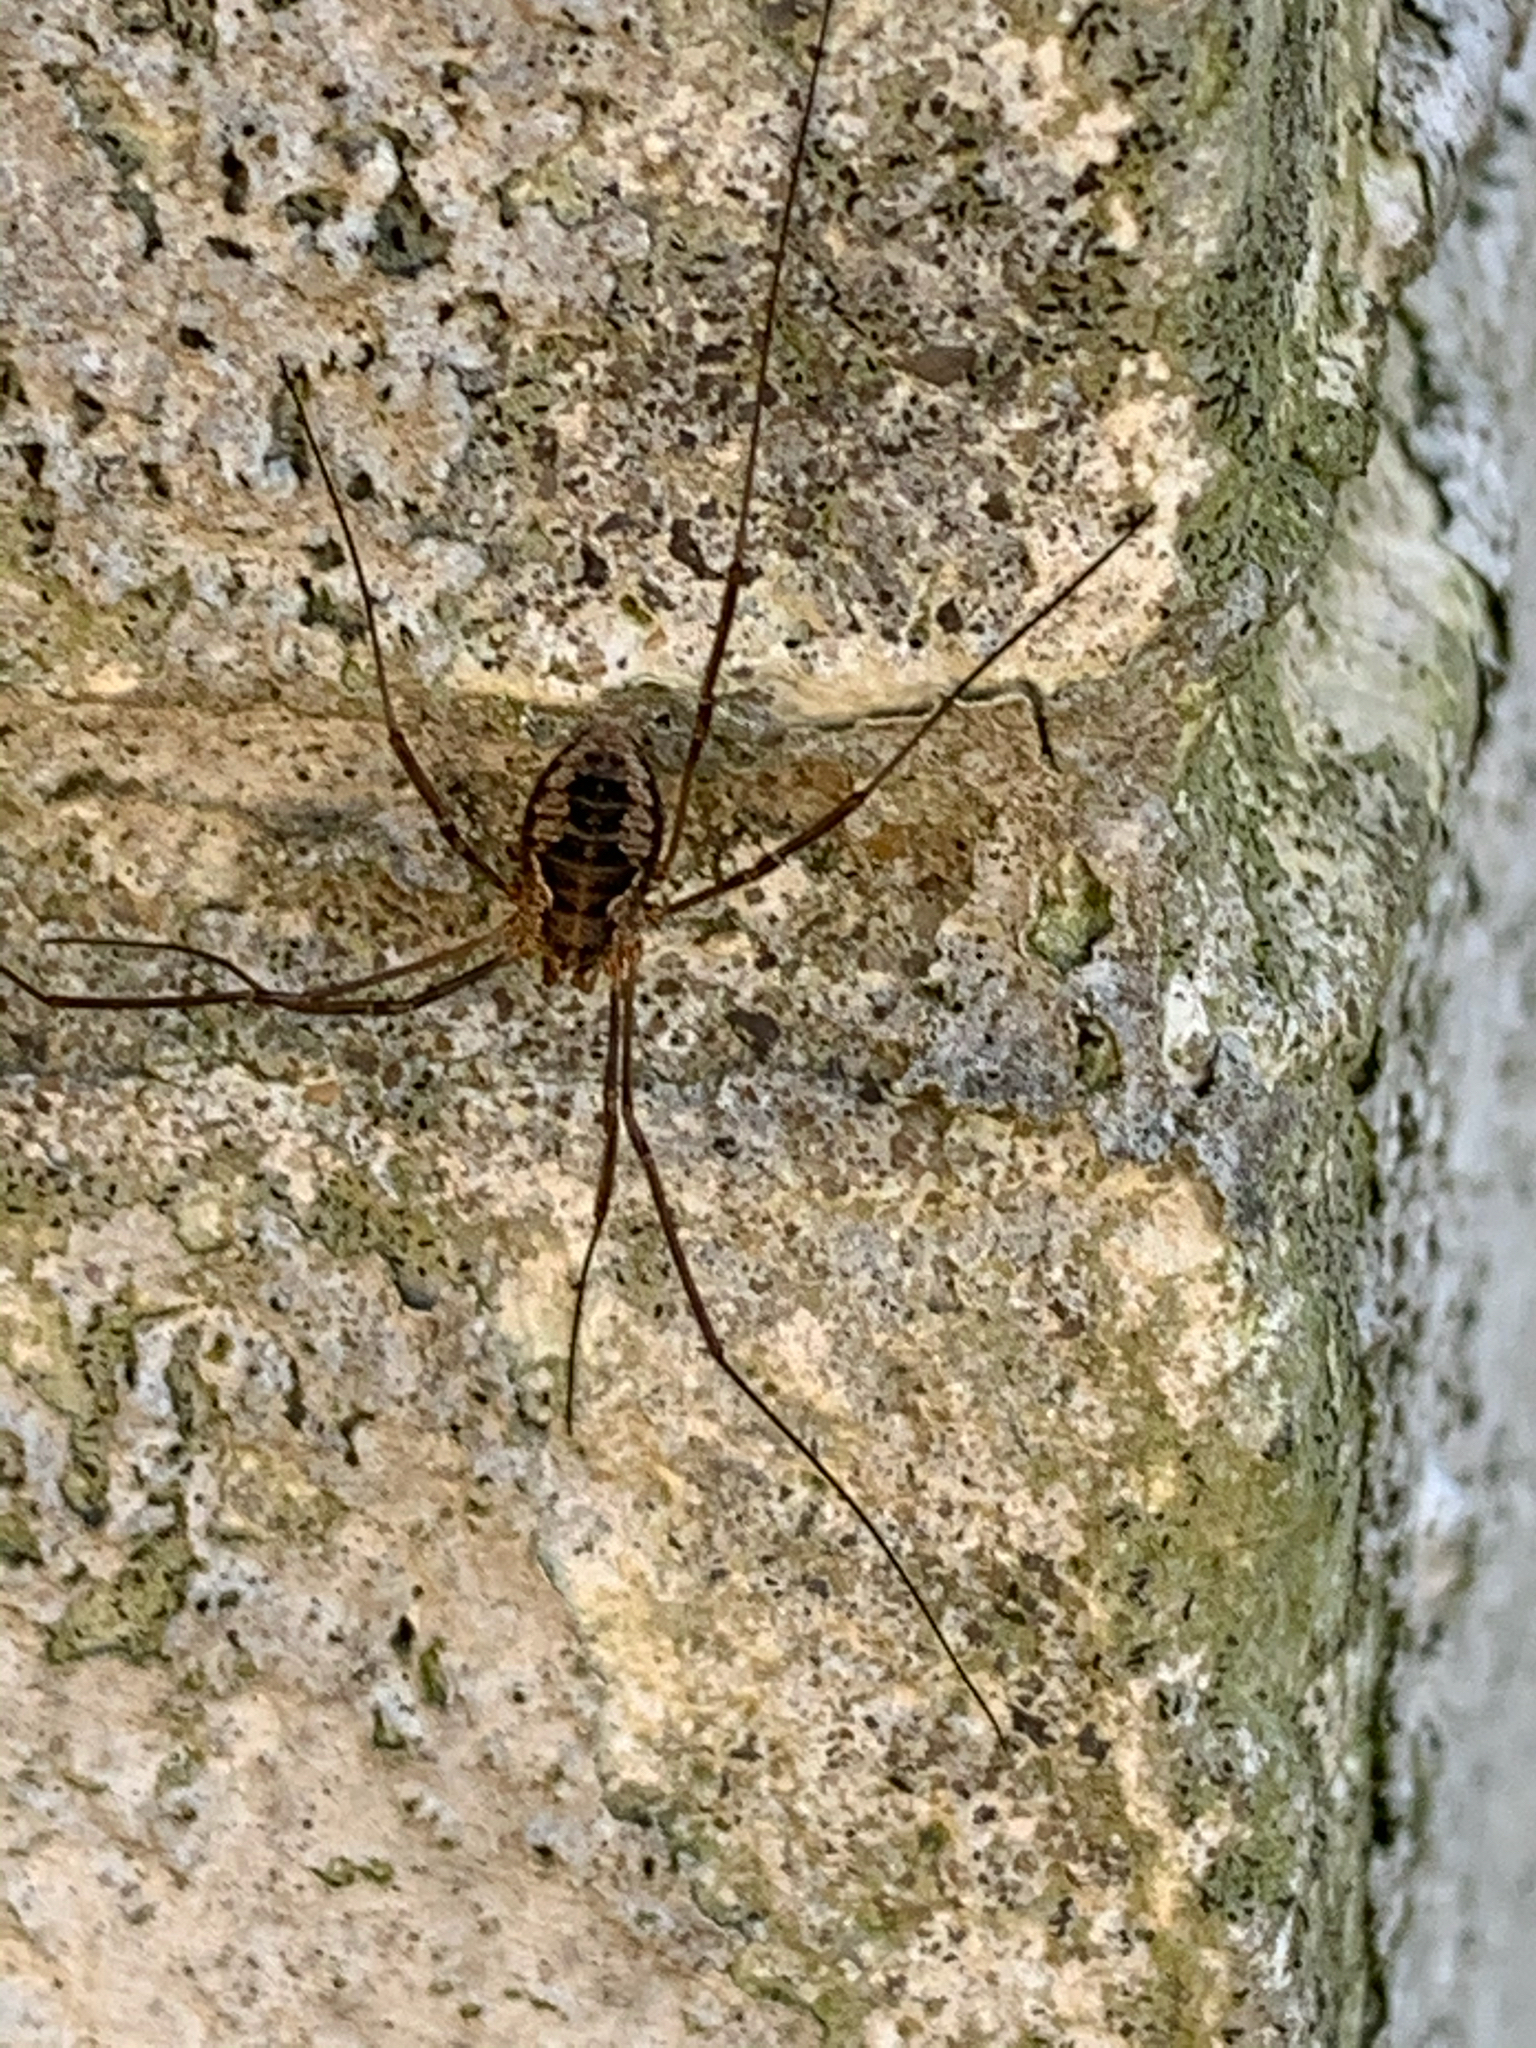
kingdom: Animalia
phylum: Arthropoda
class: Arachnida
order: Opiliones
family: Phalangiidae
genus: Phalangium
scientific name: Phalangium opilio
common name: Daddy longleg
